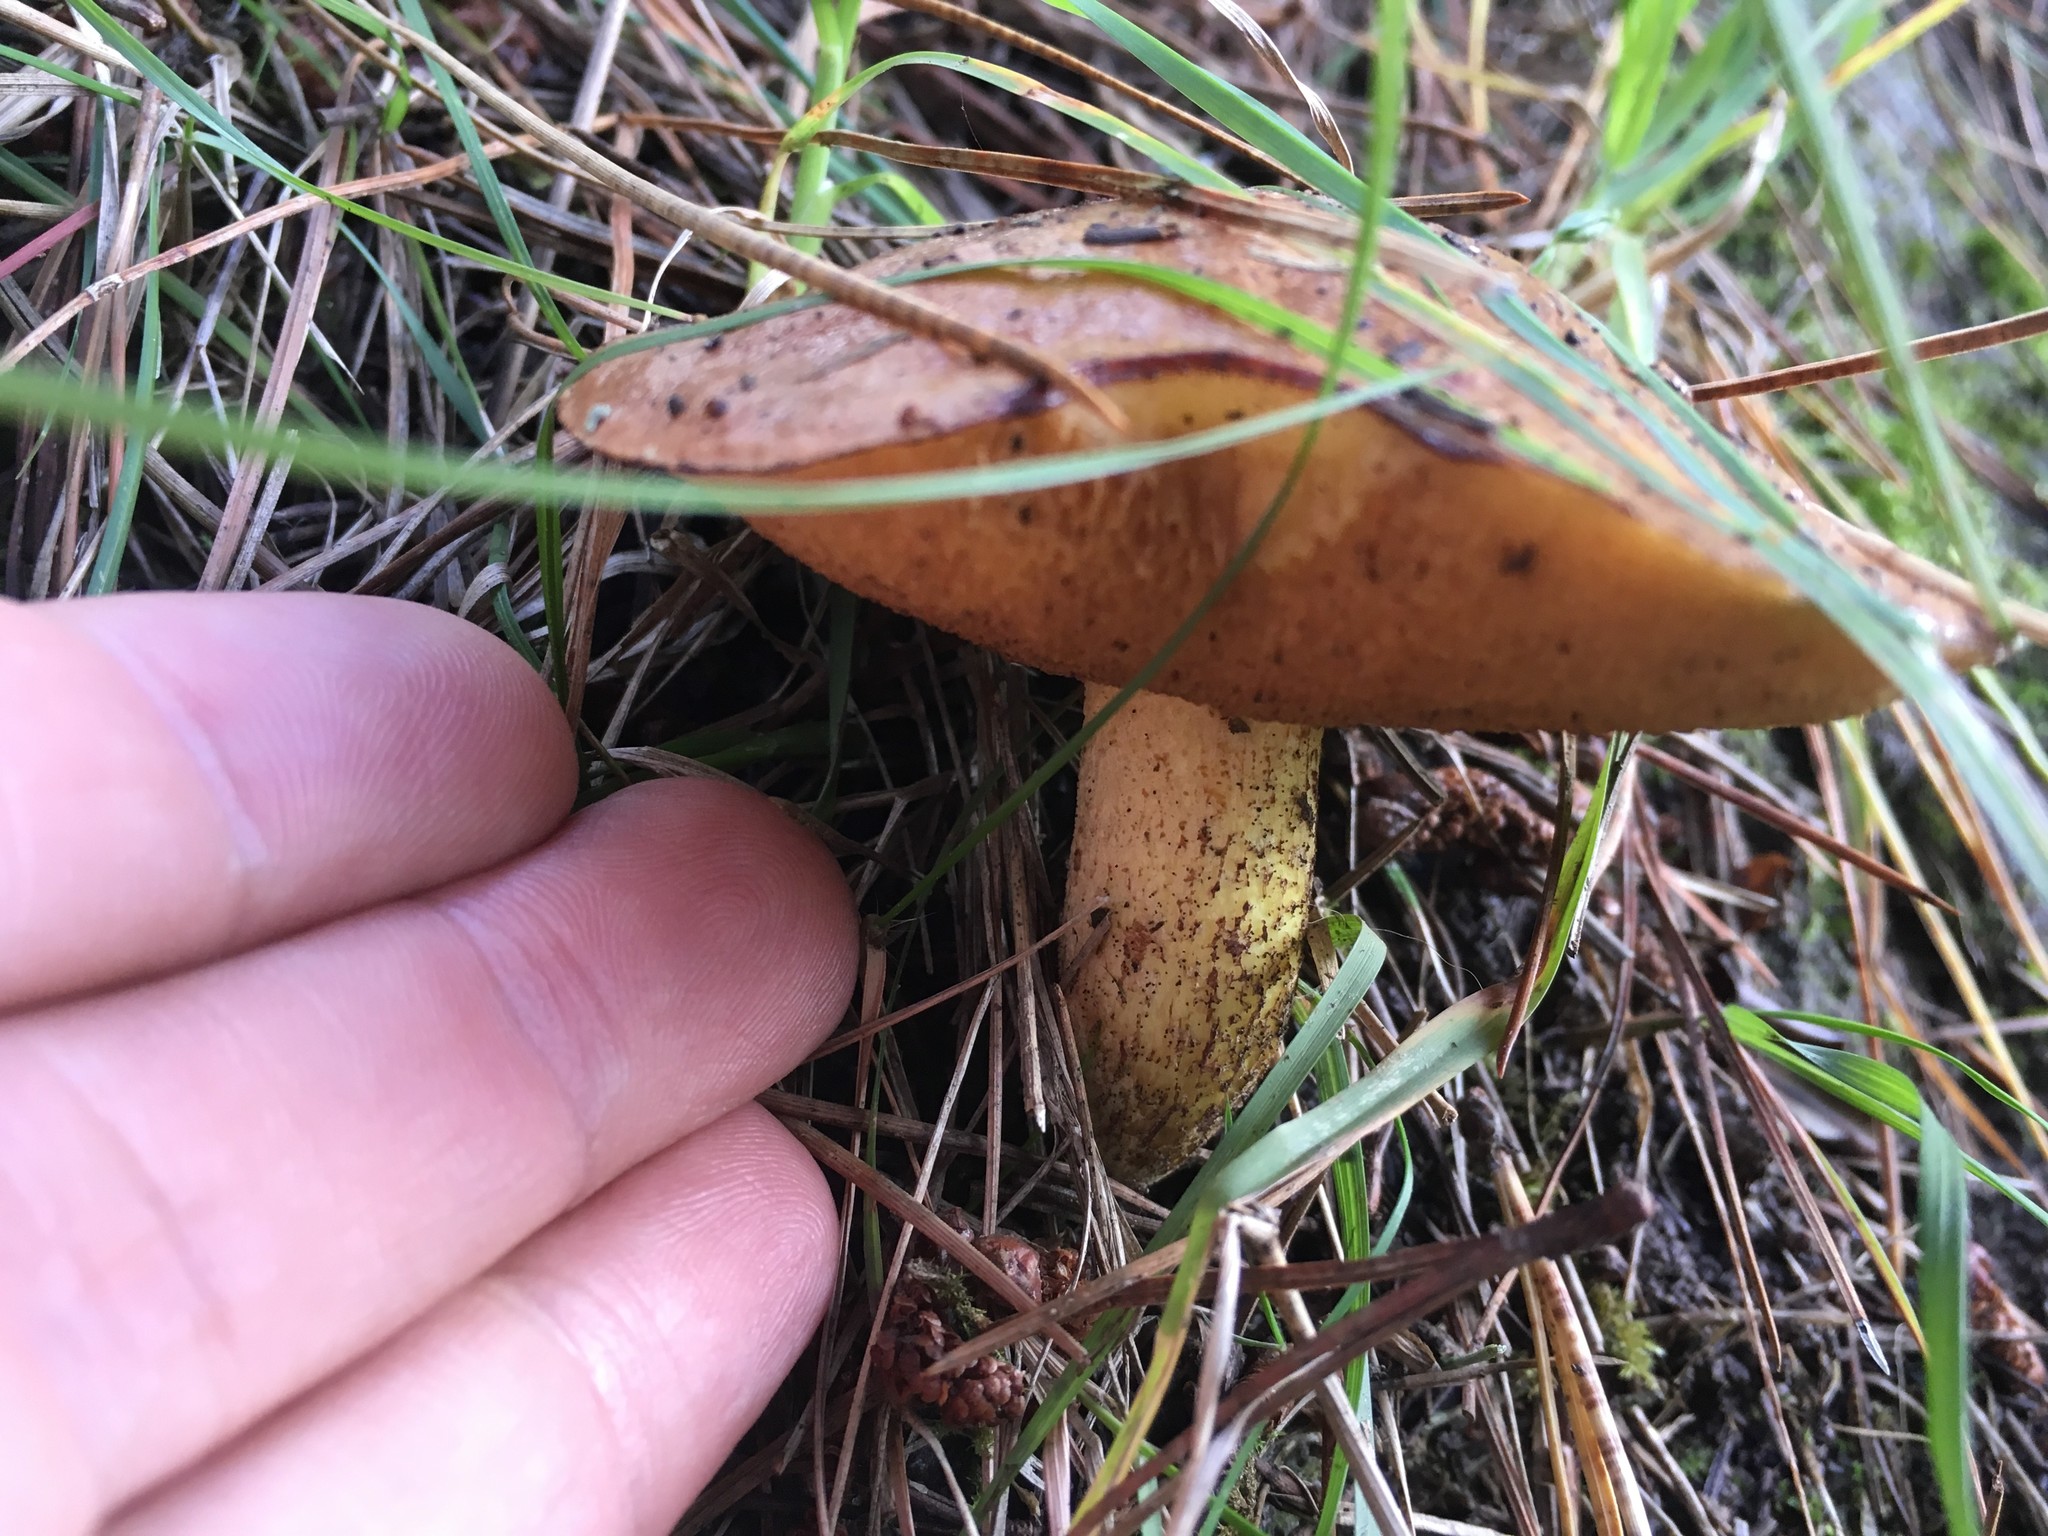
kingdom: Fungi
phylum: Basidiomycota
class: Agaricomycetes
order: Boletales
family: Suillaceae
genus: Suillus
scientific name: Suillus granulatus
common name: Weeping bolete
